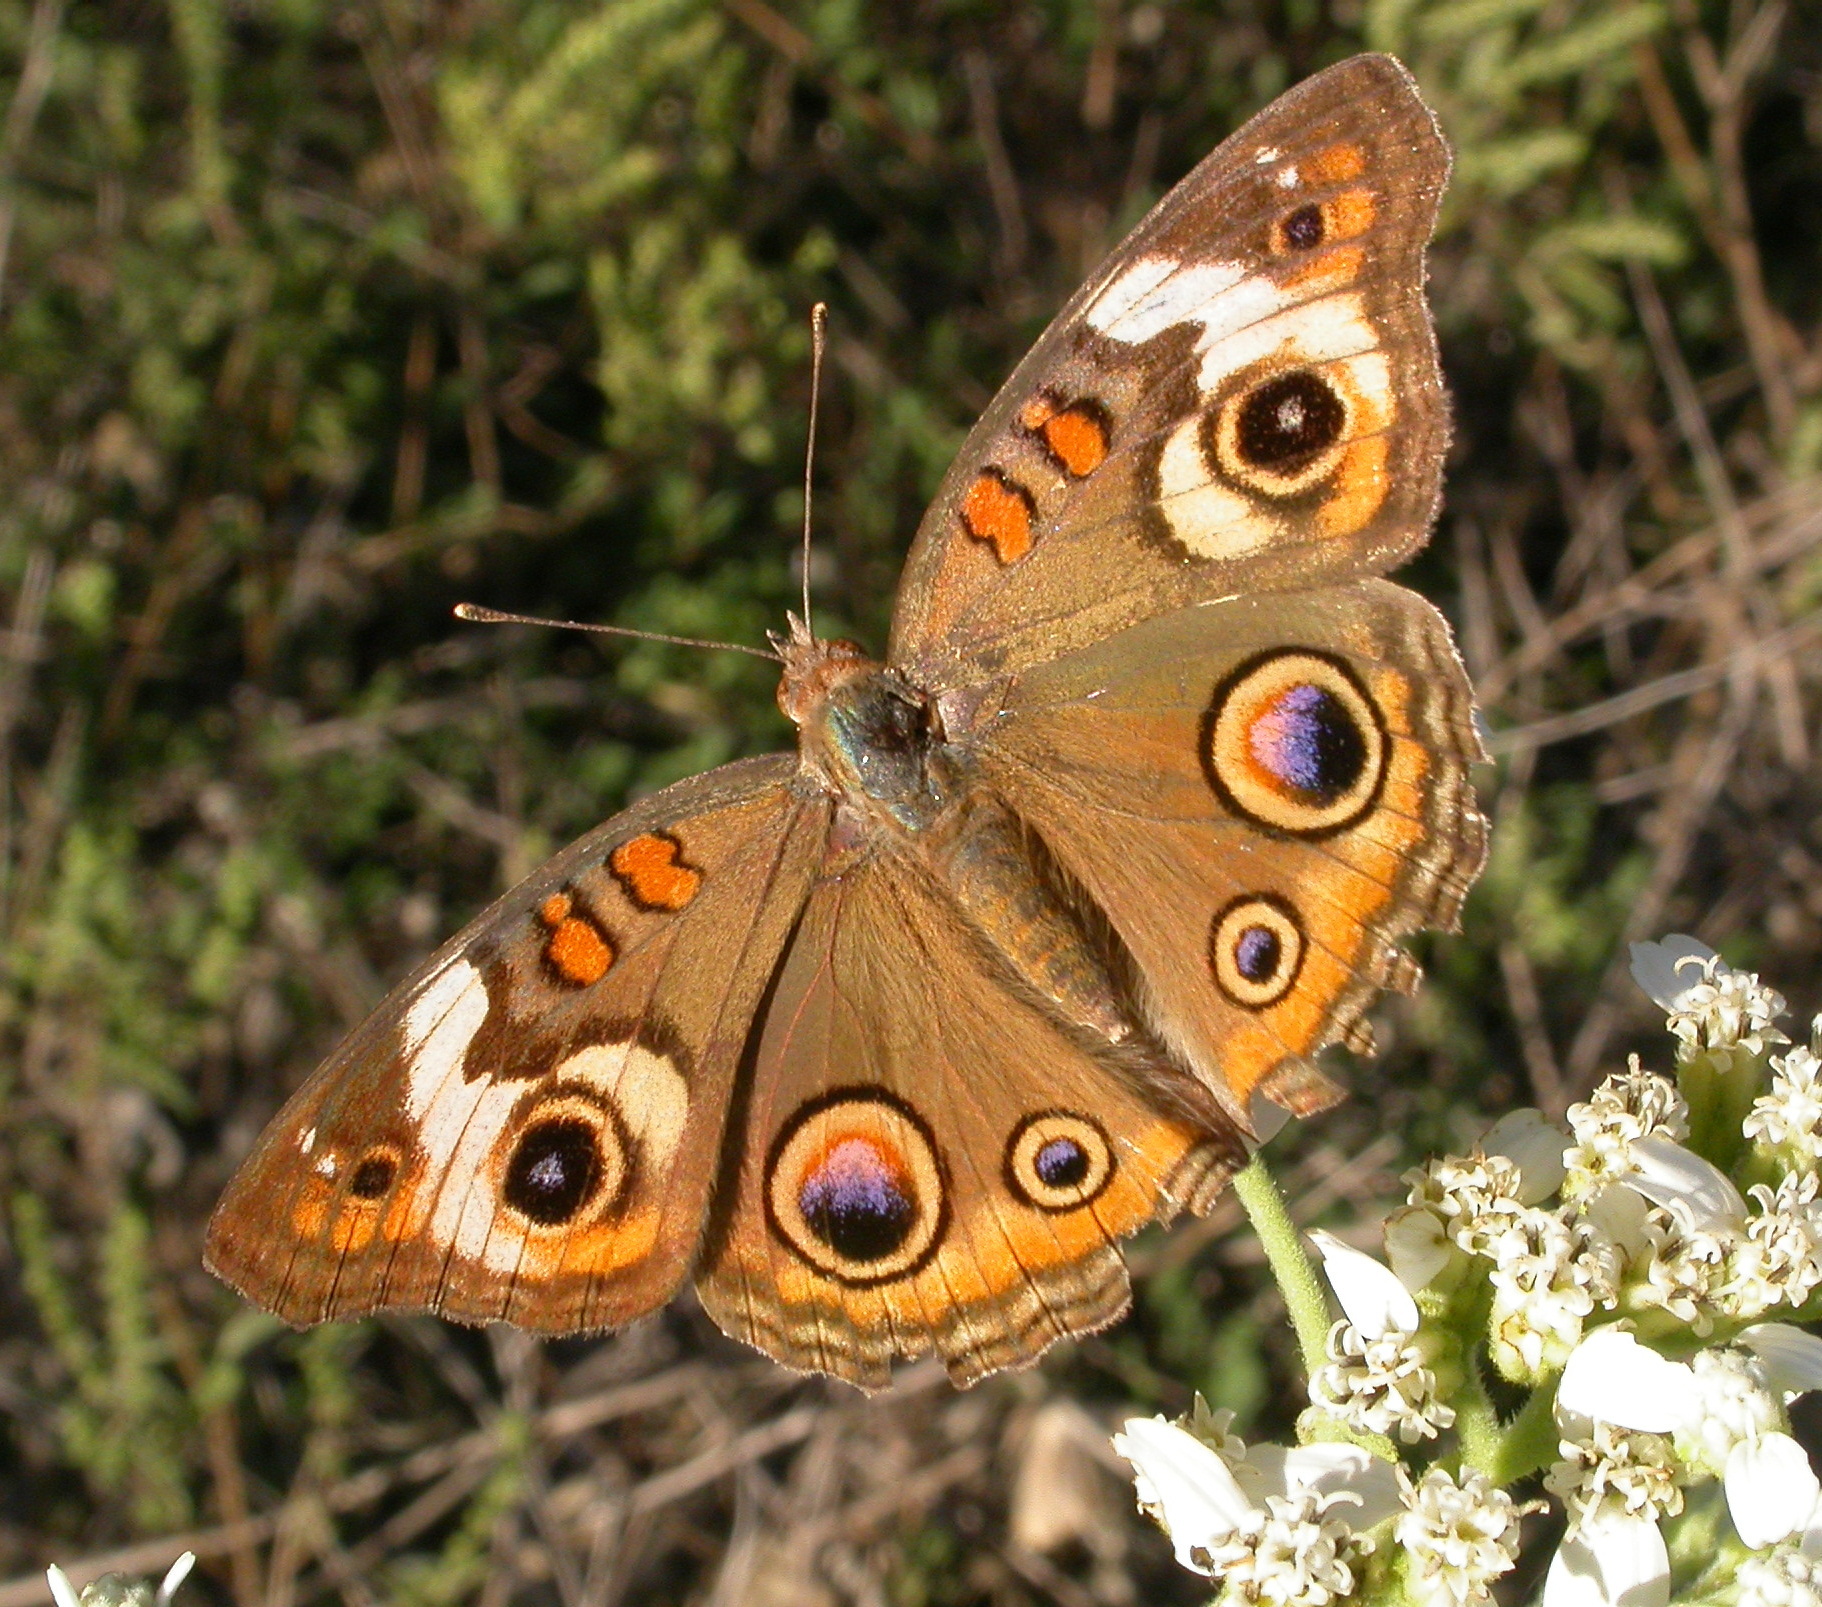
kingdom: Animalia
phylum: Arthropoda
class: Insecta
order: Lepidoptera
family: Nymphalidae
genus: Junonia
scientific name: Junonia coenia
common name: Common buckeye
